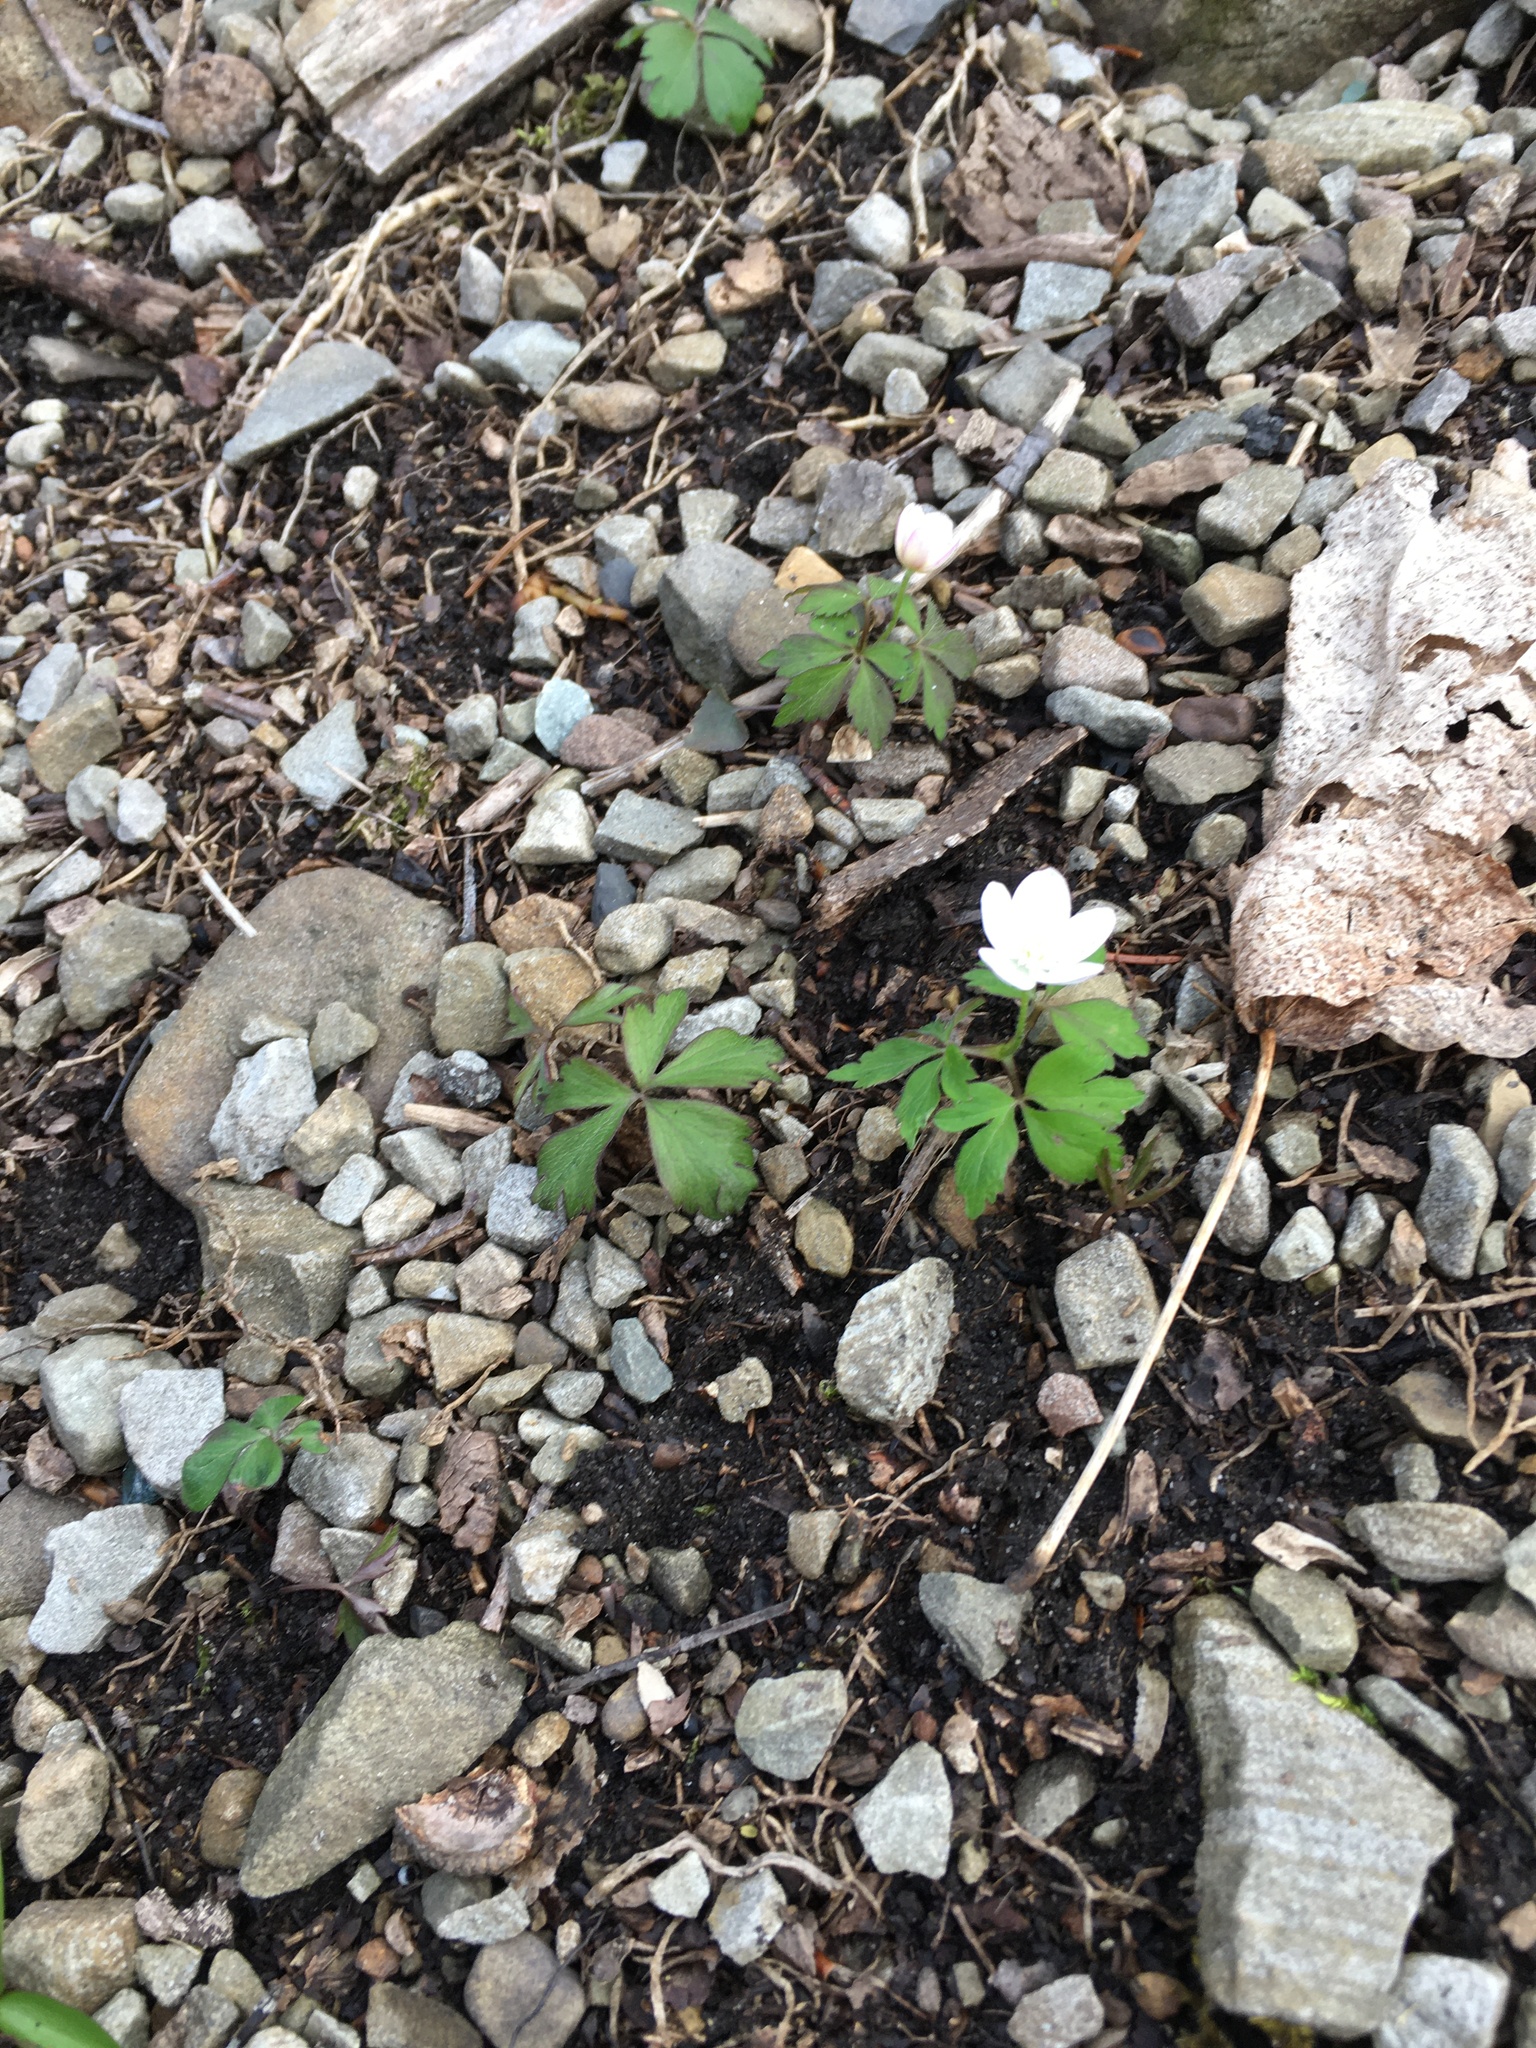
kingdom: Plantae
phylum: Tracheophyta
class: Magnoliopsida
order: Ranunculales
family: Ranunculaceae
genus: Anemone
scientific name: Anemone quinquefolia
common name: Wood anemone
